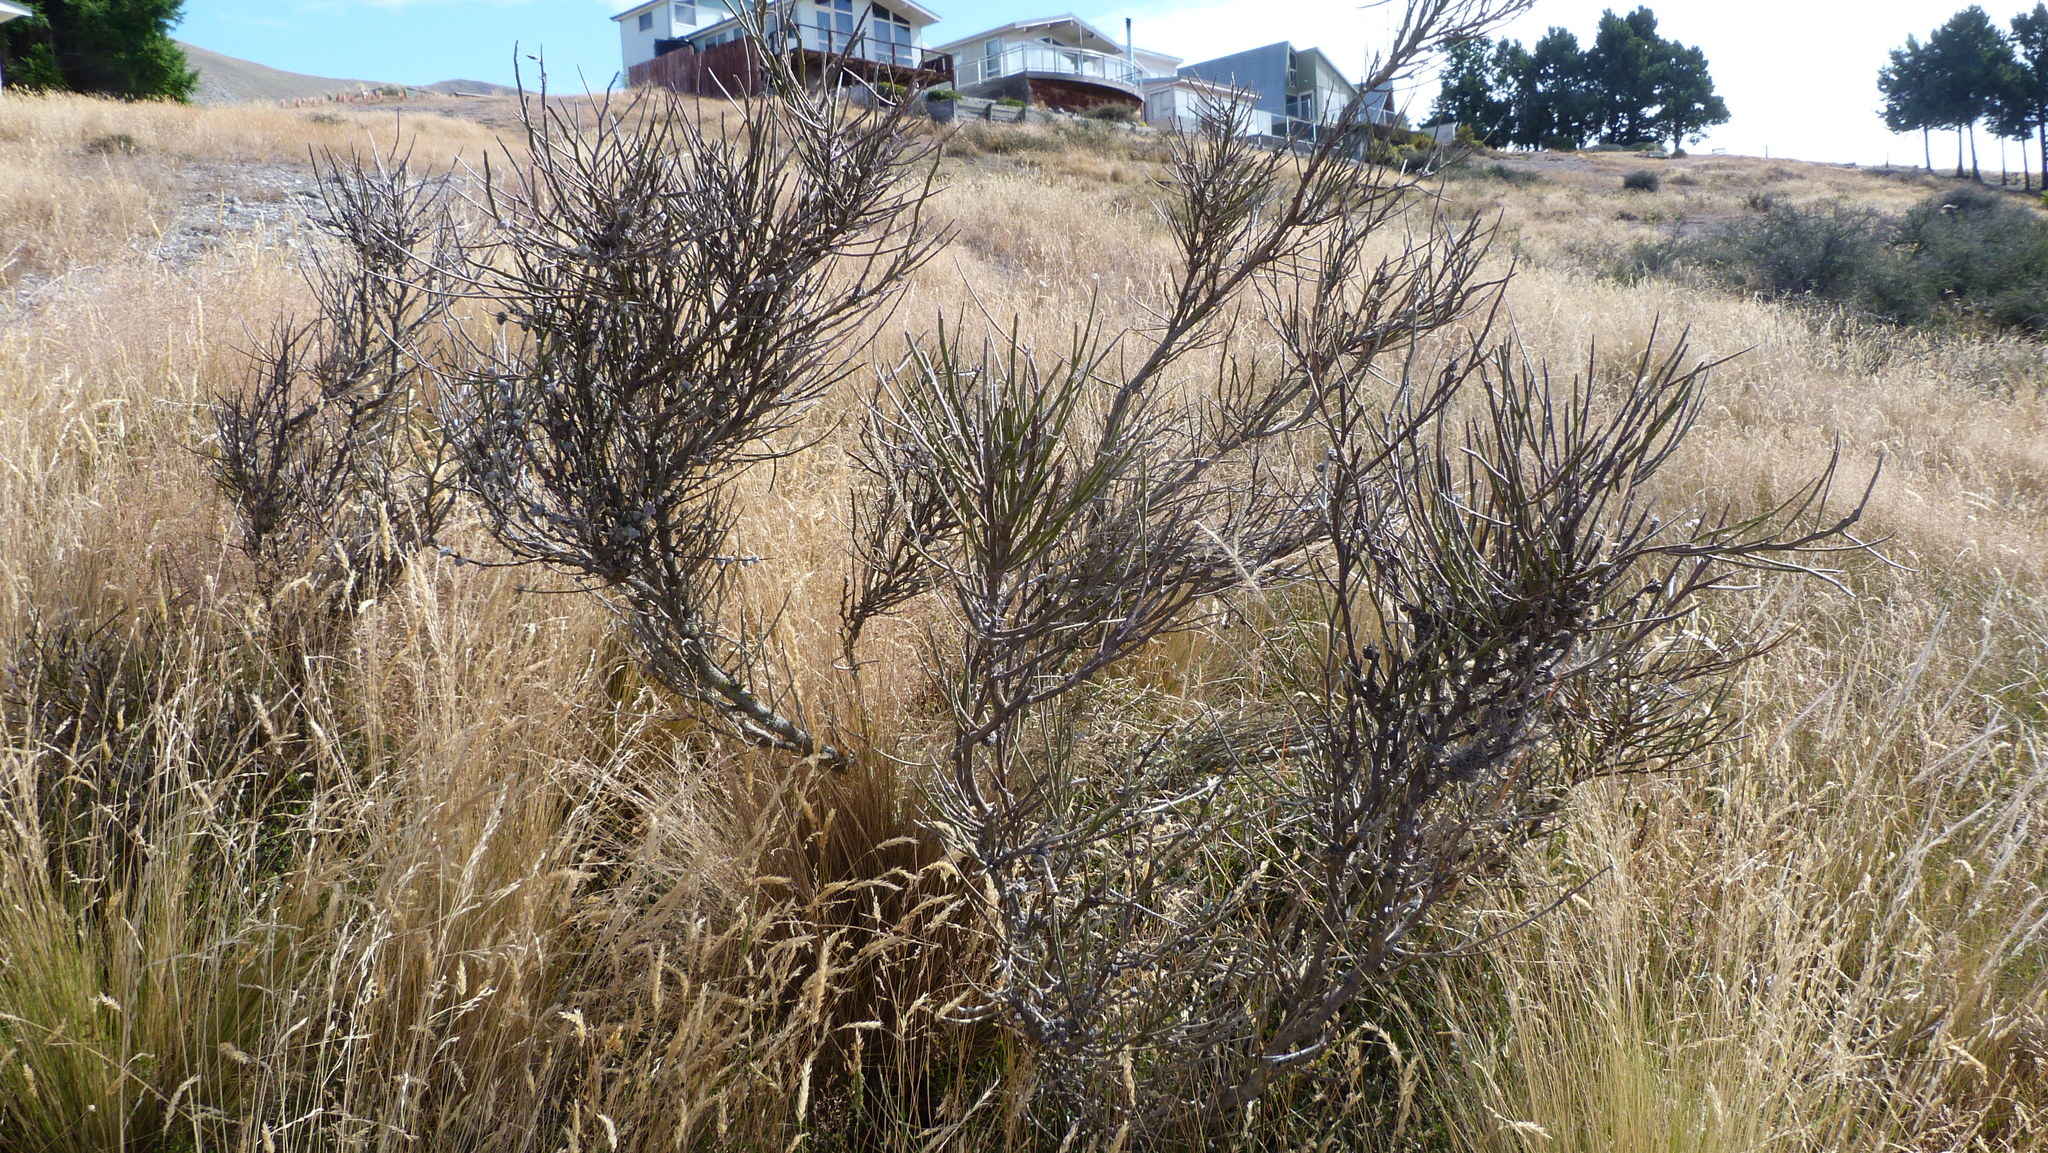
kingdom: Plantae
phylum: Tracheophyta
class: Magnoliopsida
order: Fabales
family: Fabaceae
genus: Carmichaelia
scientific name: Carmichaelia australis
